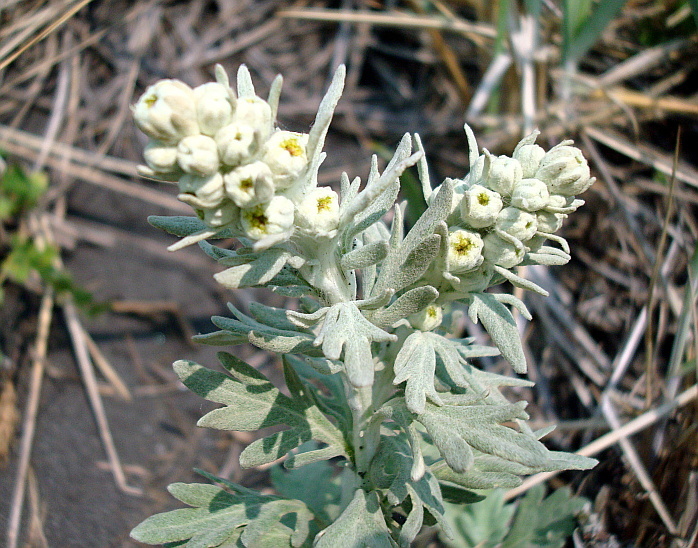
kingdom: Plantae
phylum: Tracheophyta
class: Magnoliopsida
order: Asterales
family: Asteraceae
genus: Artemisia
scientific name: Artemisia stelleriana
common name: Beach wormwood
